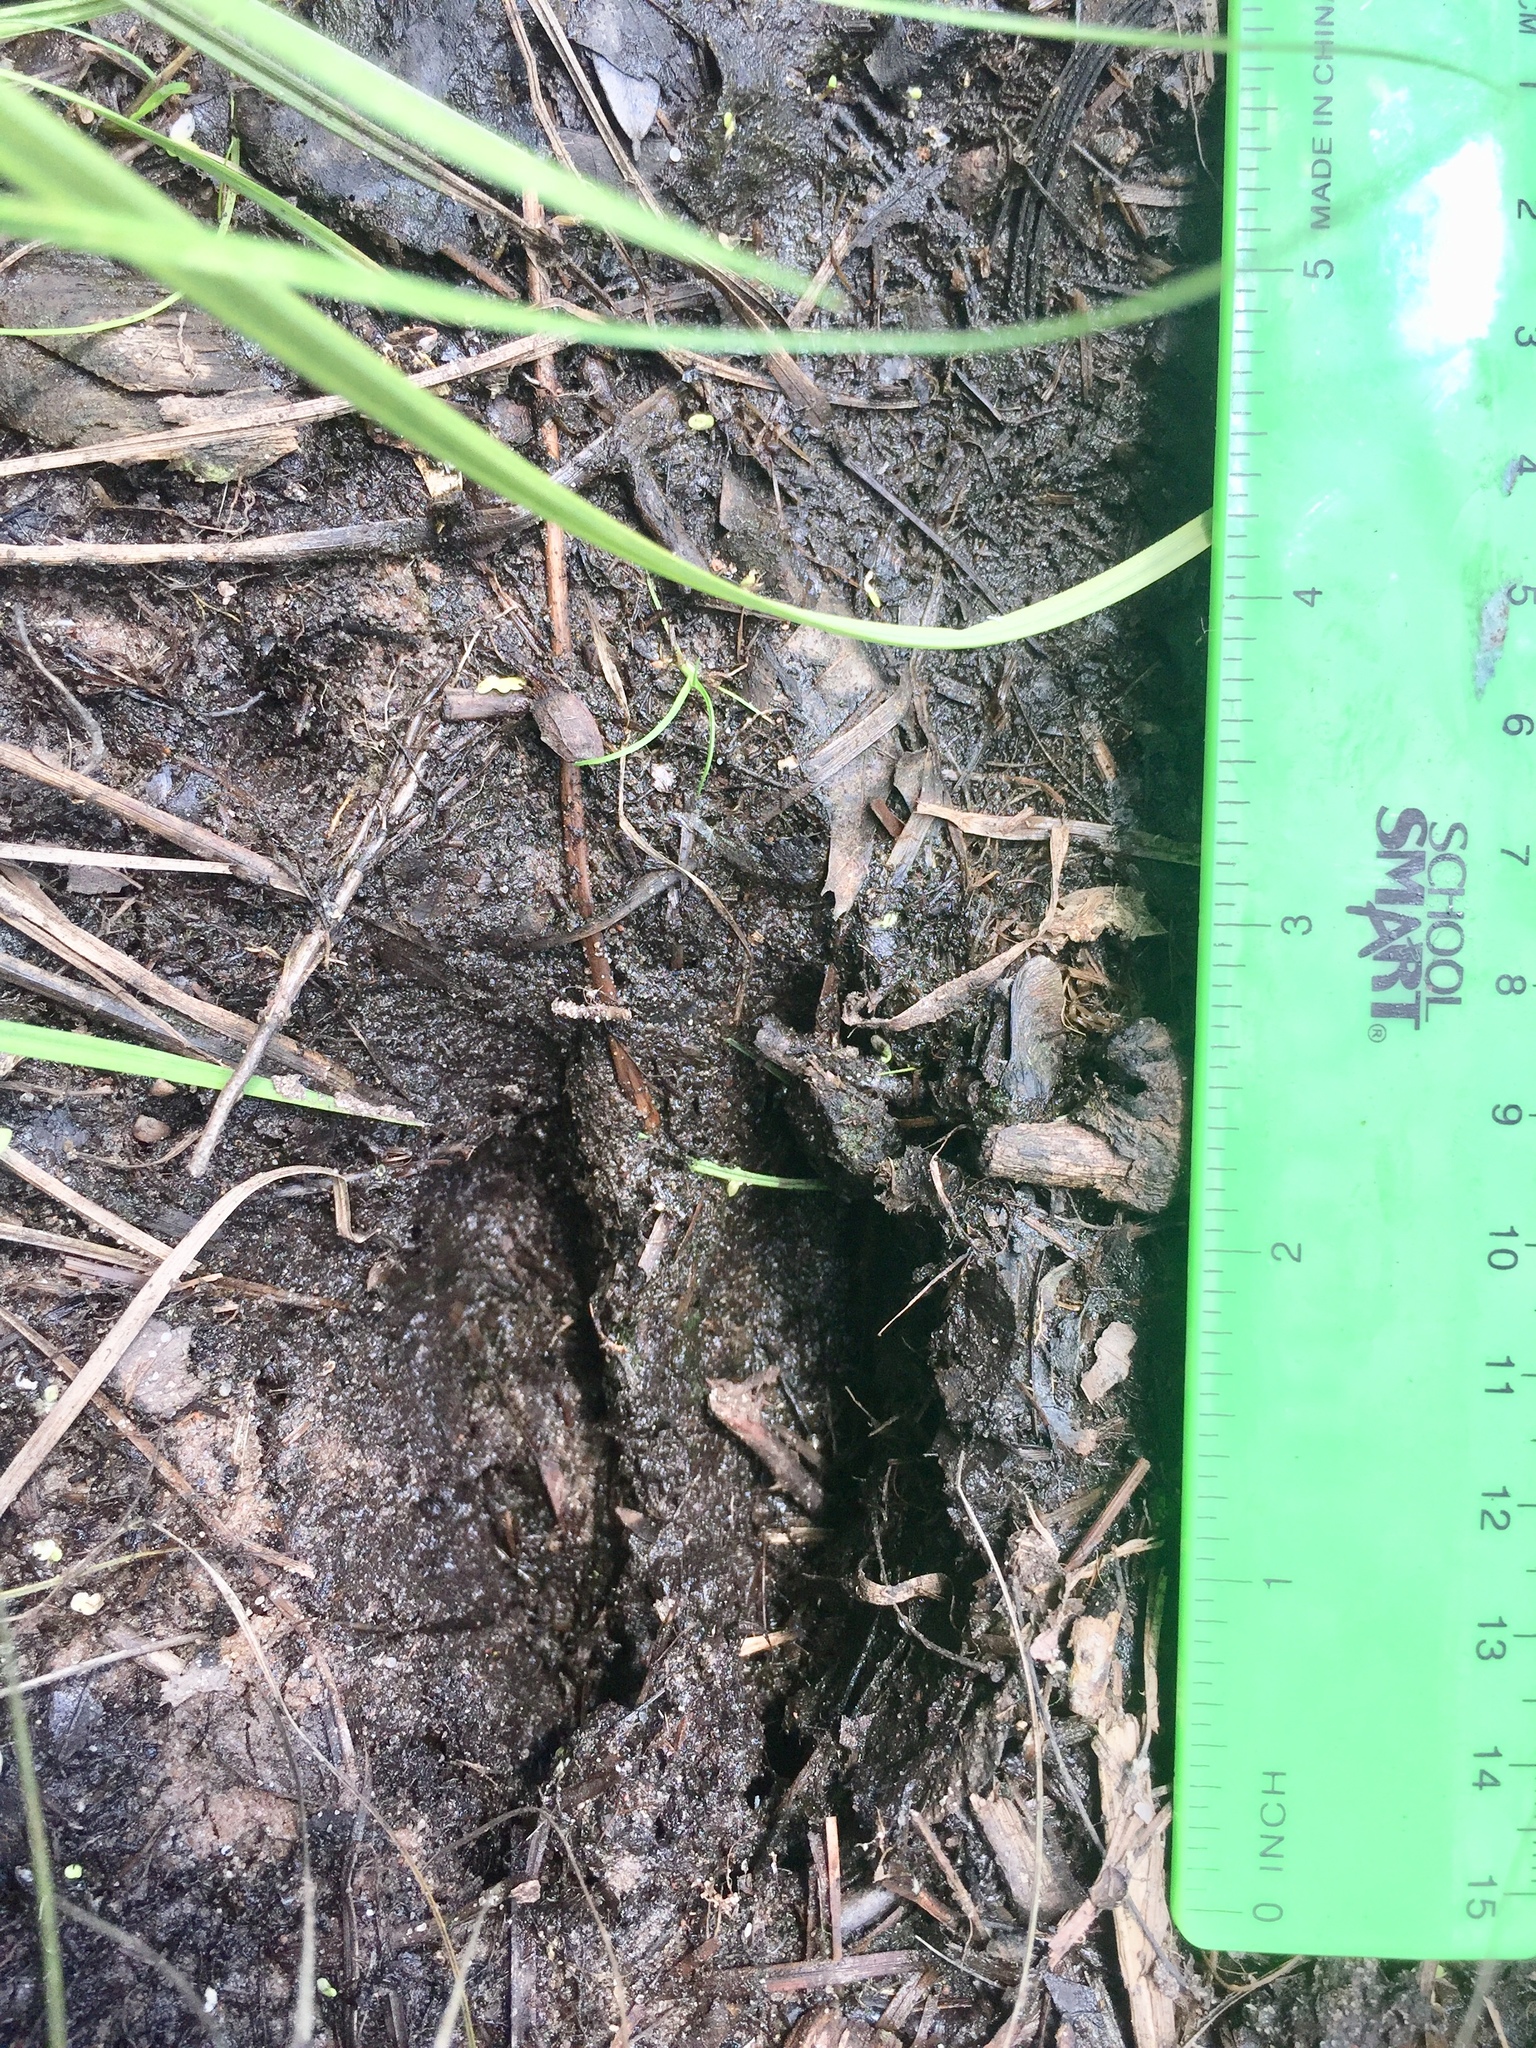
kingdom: Animalia
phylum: Chordata
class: Mammalia
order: Artiodactyla
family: Cervidae
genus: Odocoileus
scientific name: Odocoileus virginianus
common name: White-tailed deer
